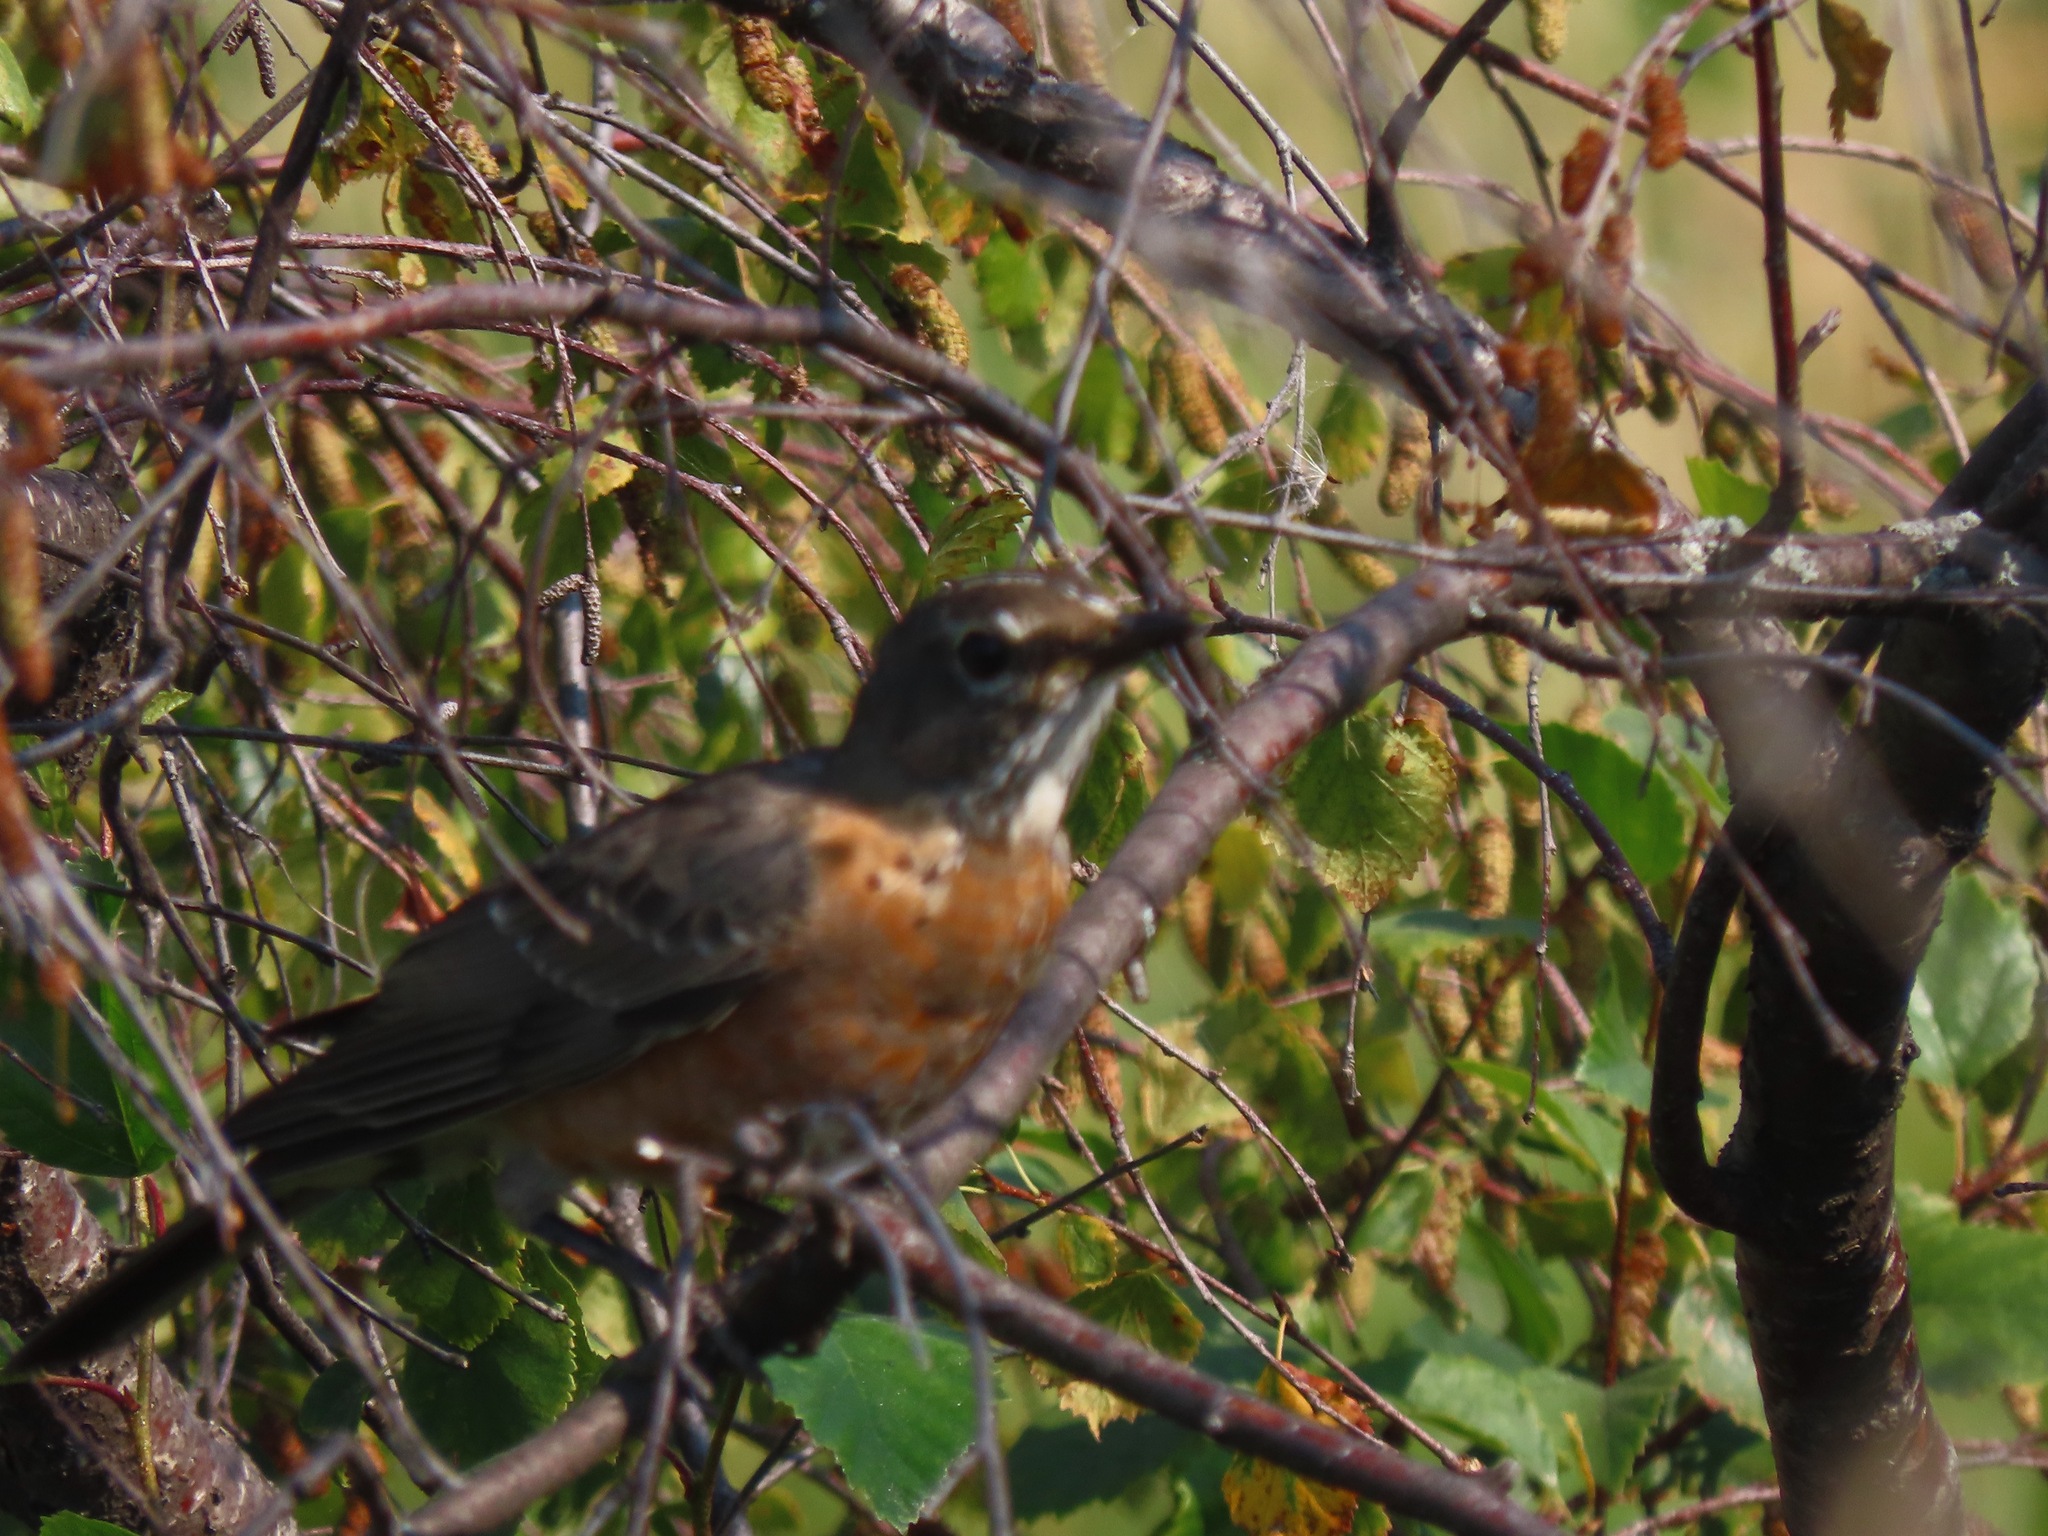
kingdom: Animalia
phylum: Chordata
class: Aves
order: Passeriformes
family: Turdidae
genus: Turdus
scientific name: Turdus migratorius
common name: American robin
